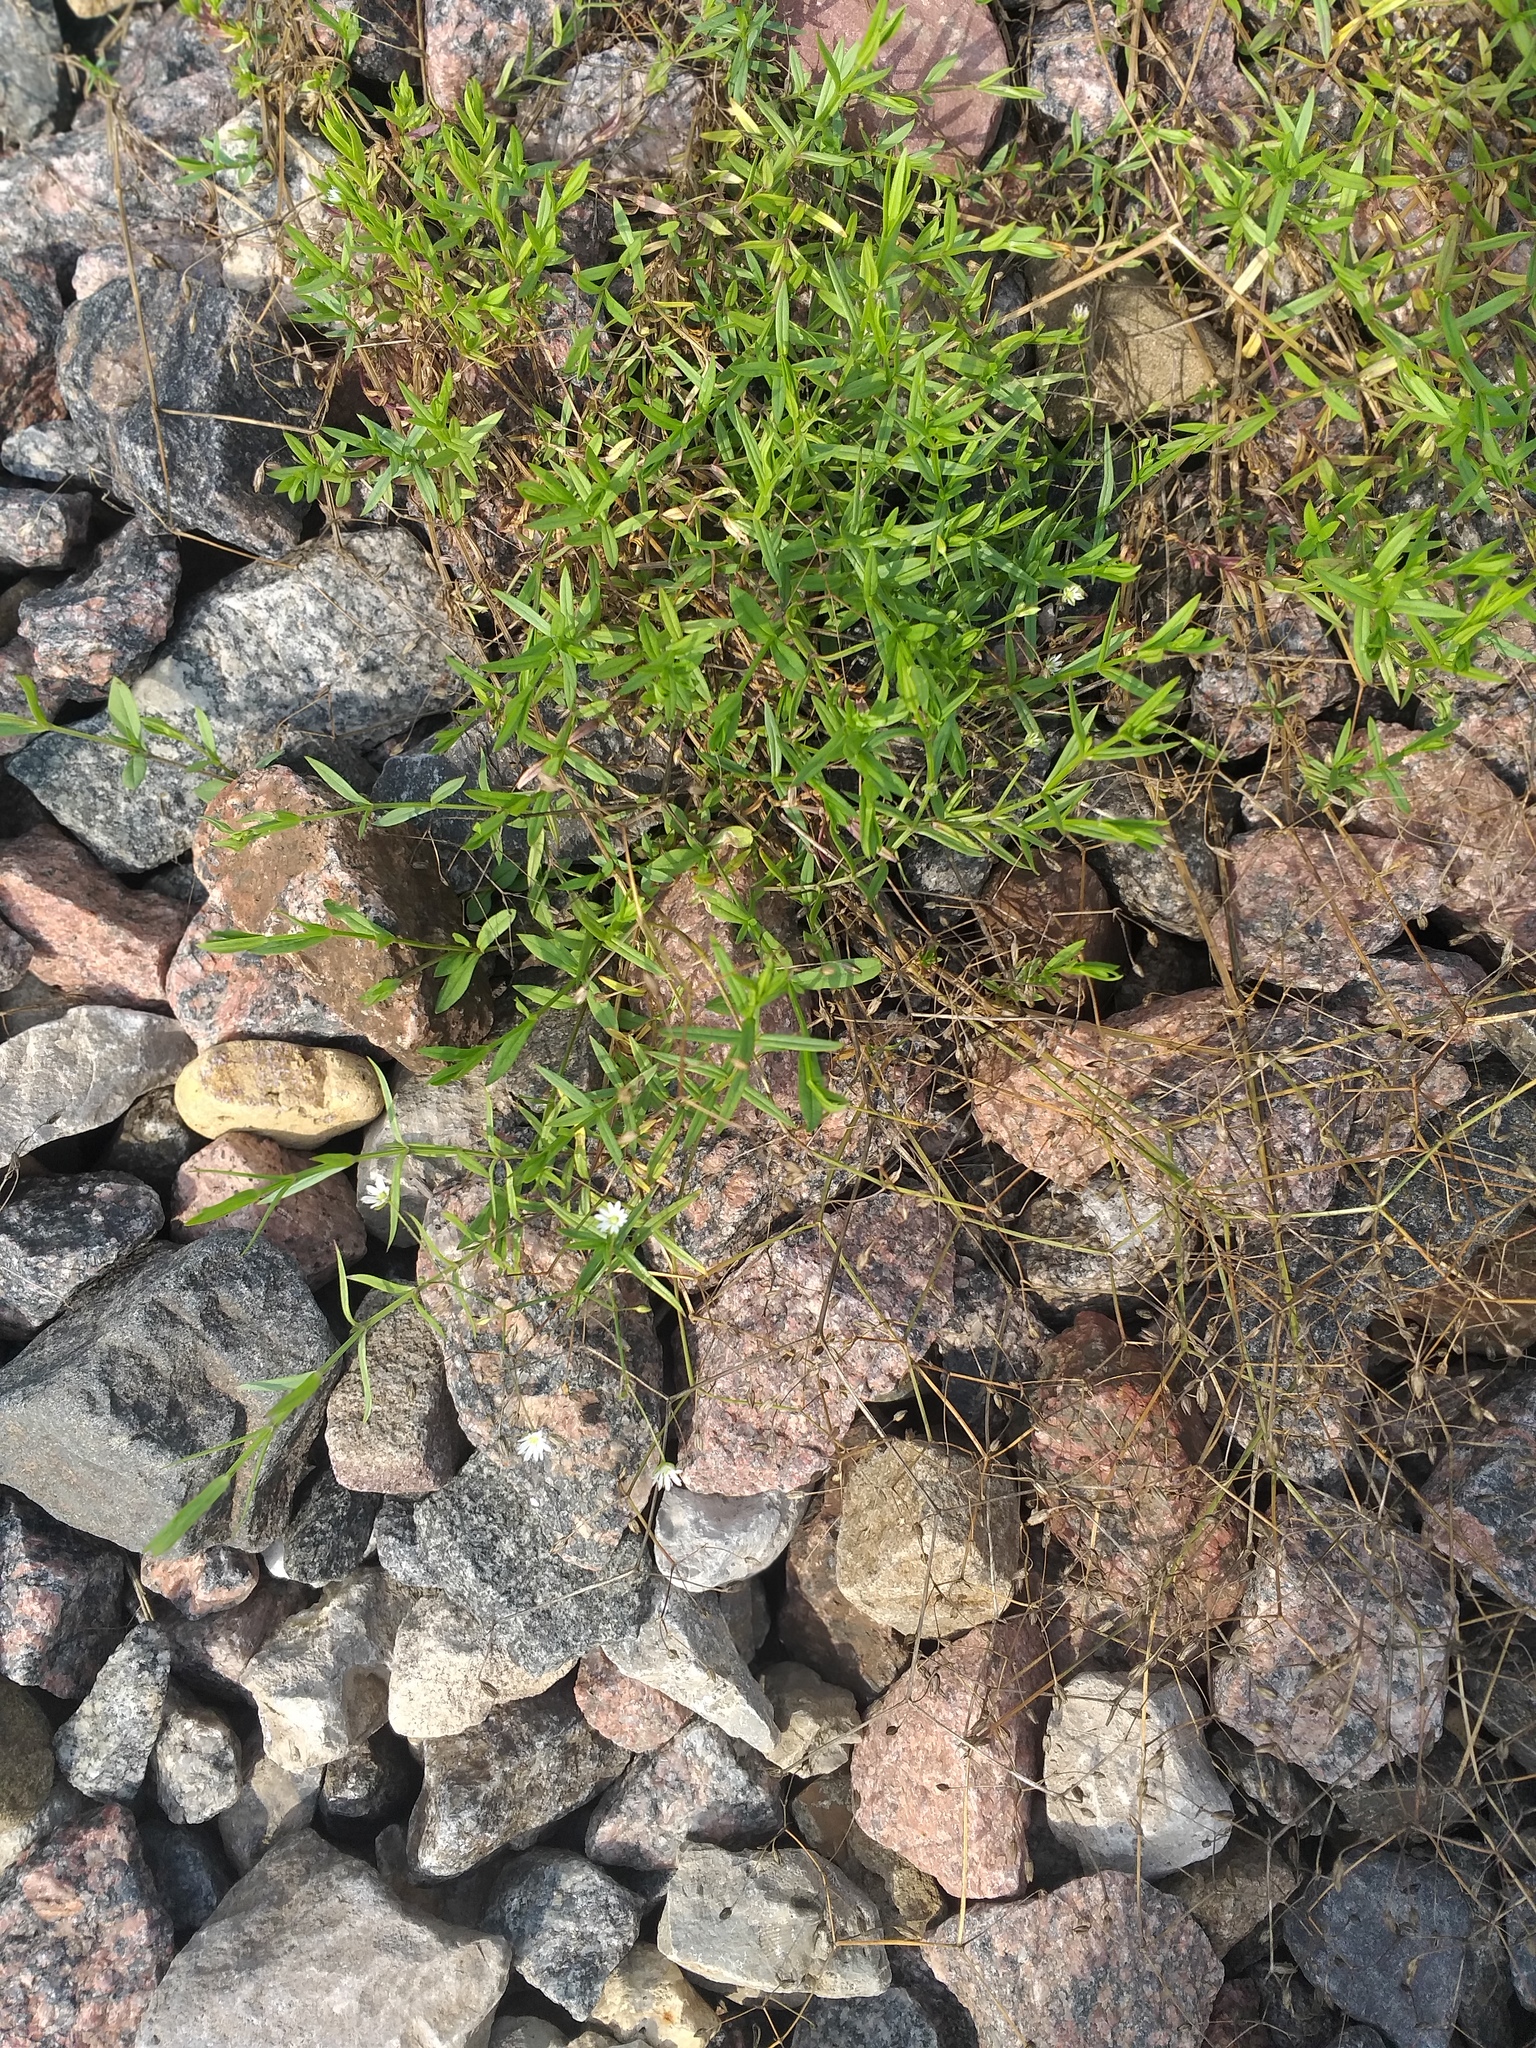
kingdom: Plantae
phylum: Tracheophyta
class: Magnoliopsida
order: Caryophyllales
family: Caryophyllaceae
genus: Stellaria
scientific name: Stellaria graminea
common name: Grass-like starwort
